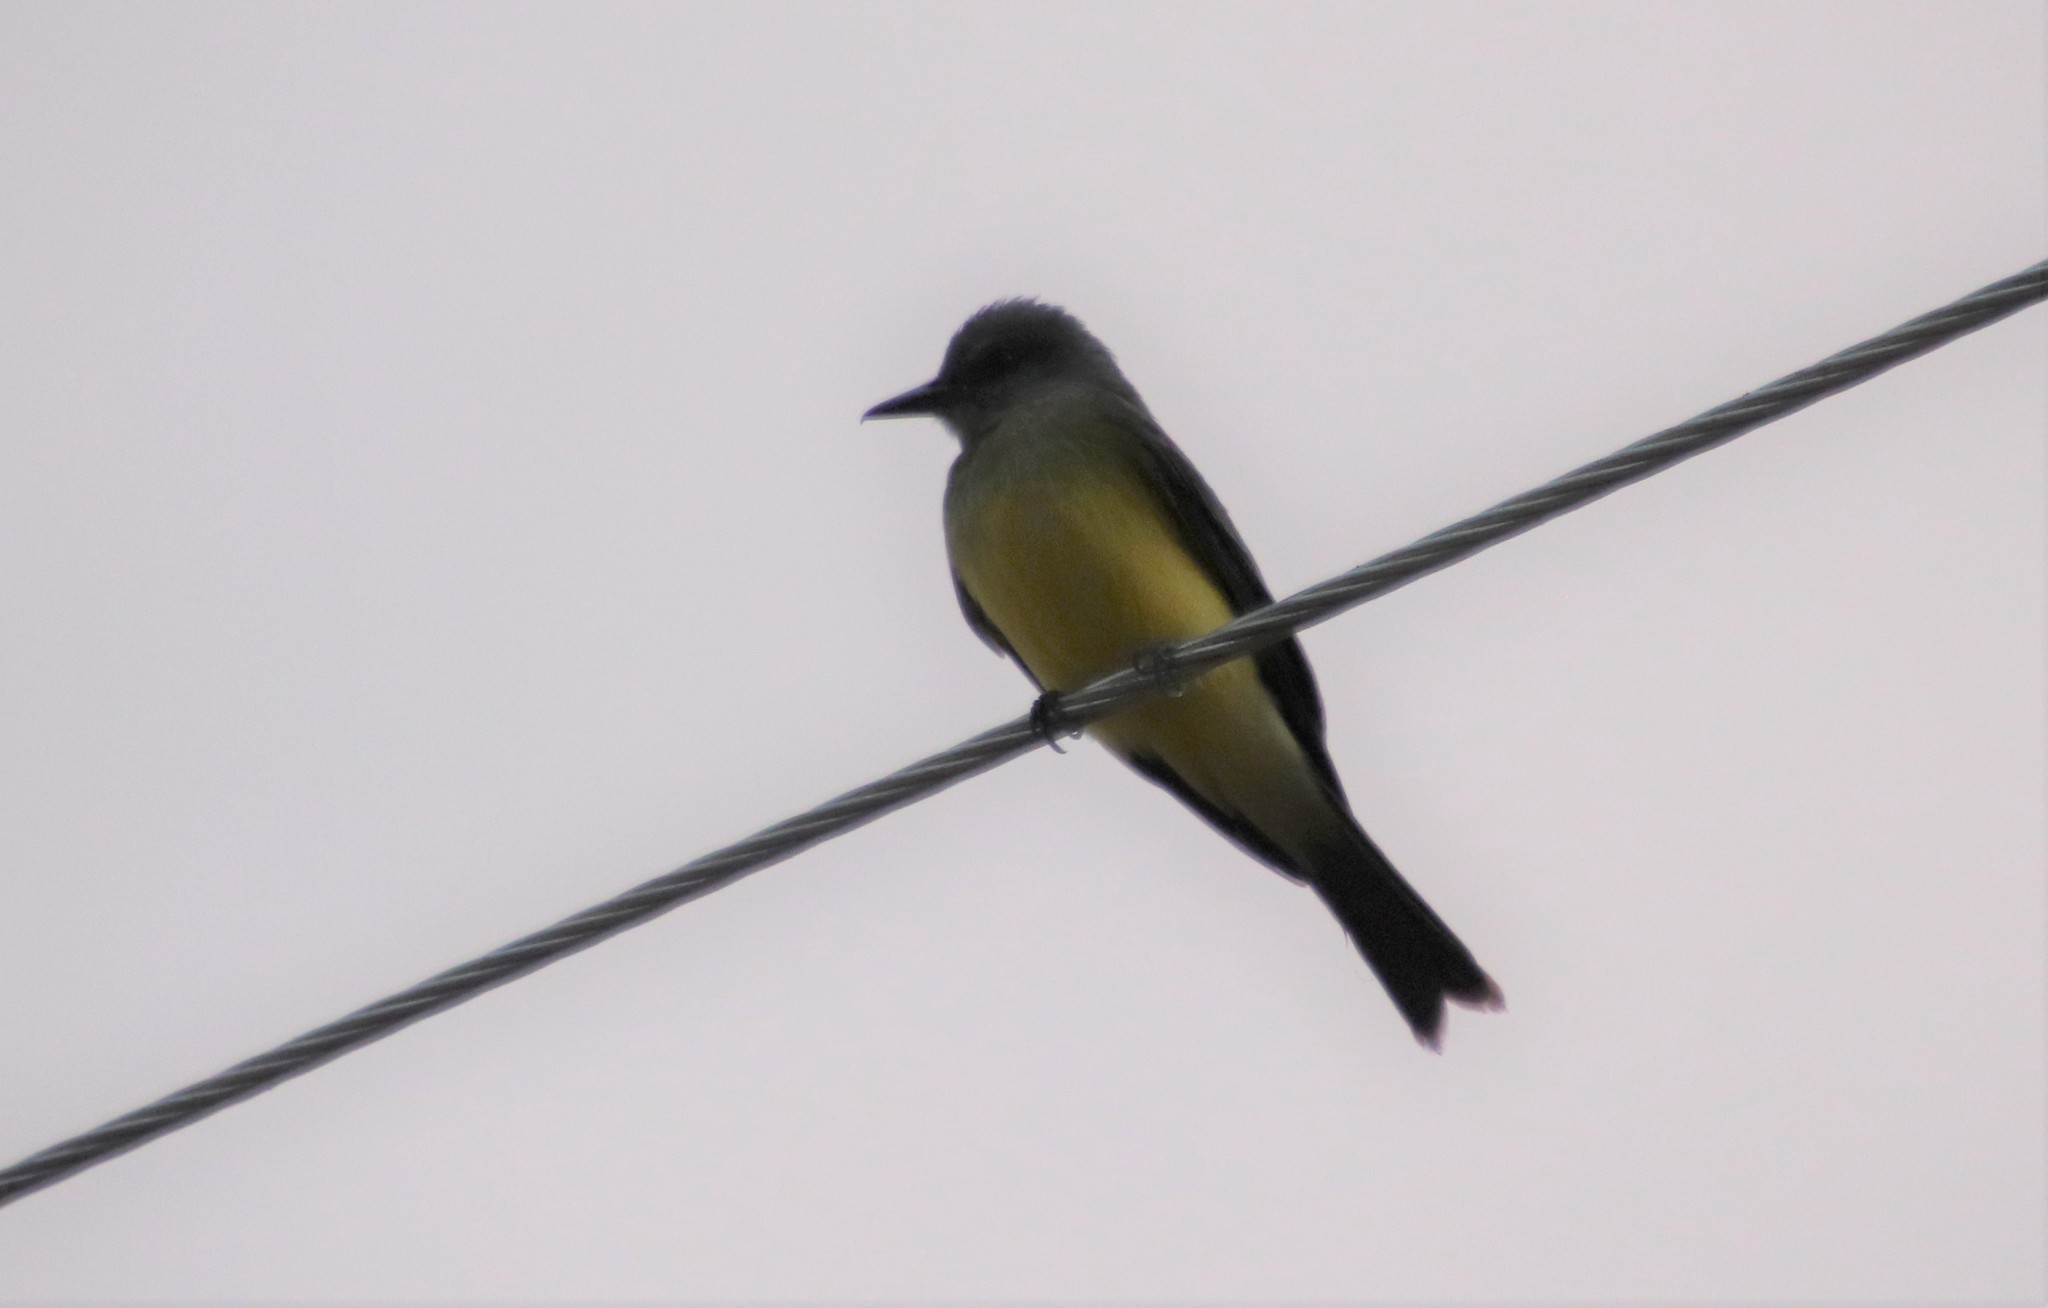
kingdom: Animalia
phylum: Chordata
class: Aves
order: Passeriformes
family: Tyrannidae
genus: Tyrannus
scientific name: Tyrannus melancholicus
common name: Tropical kingbird
